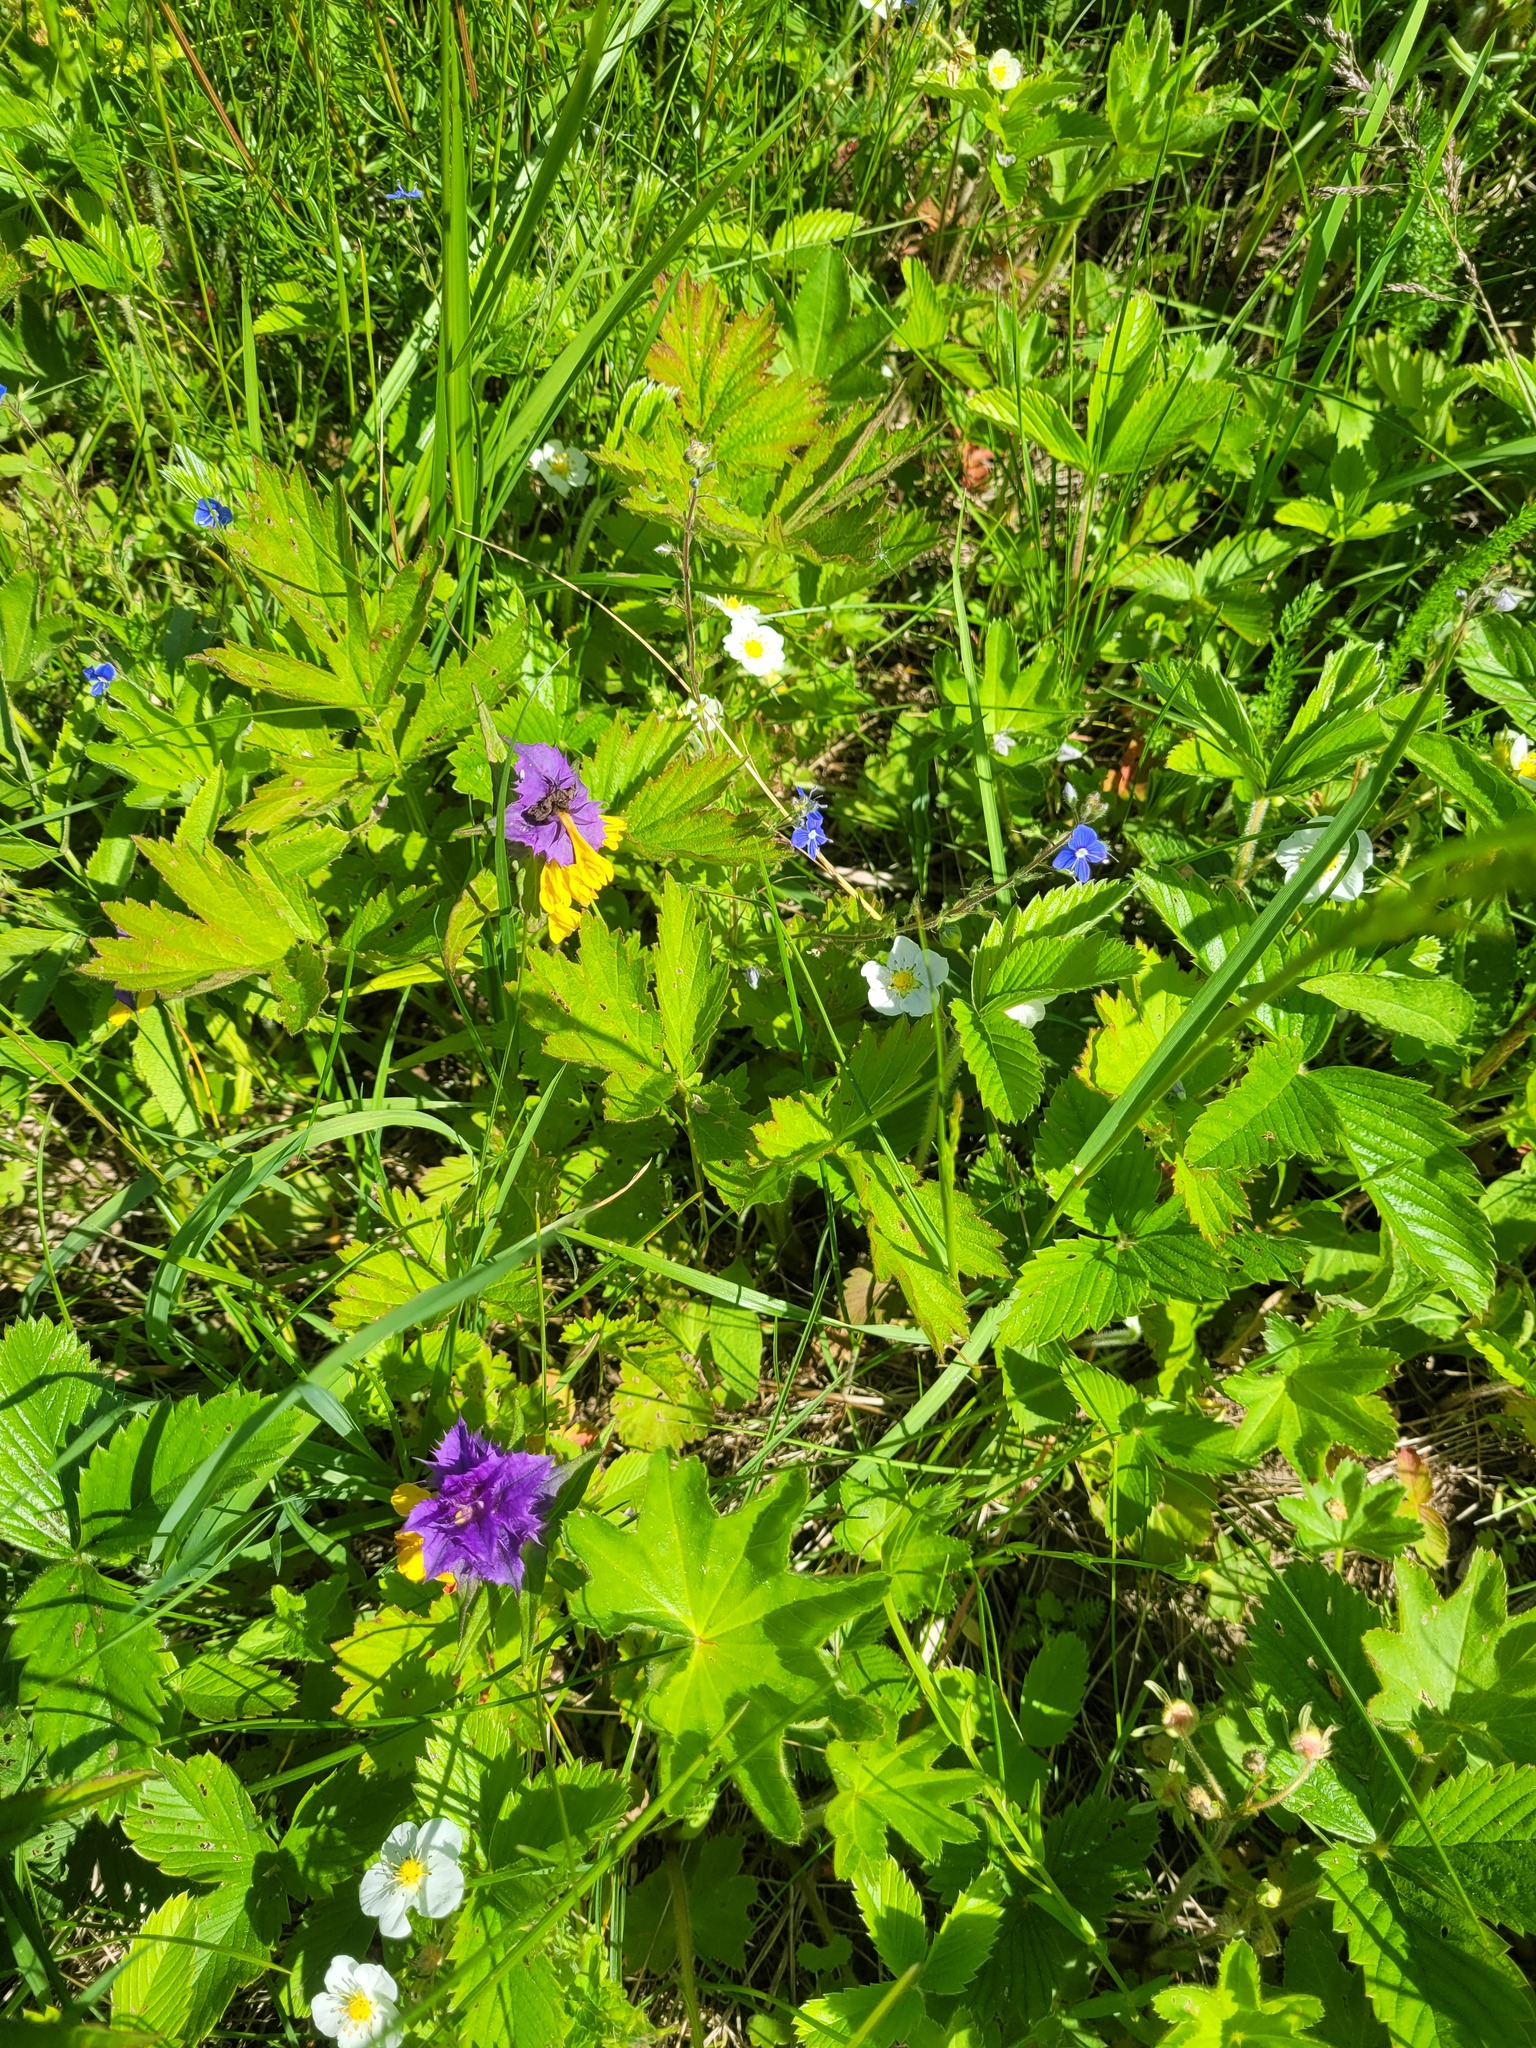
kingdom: Plantae
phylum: Tracheophyta
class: Magnoliopsida
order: Lamiales
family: Orobanchaceae
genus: Melampyrum
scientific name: Melampyrum nemorosum
